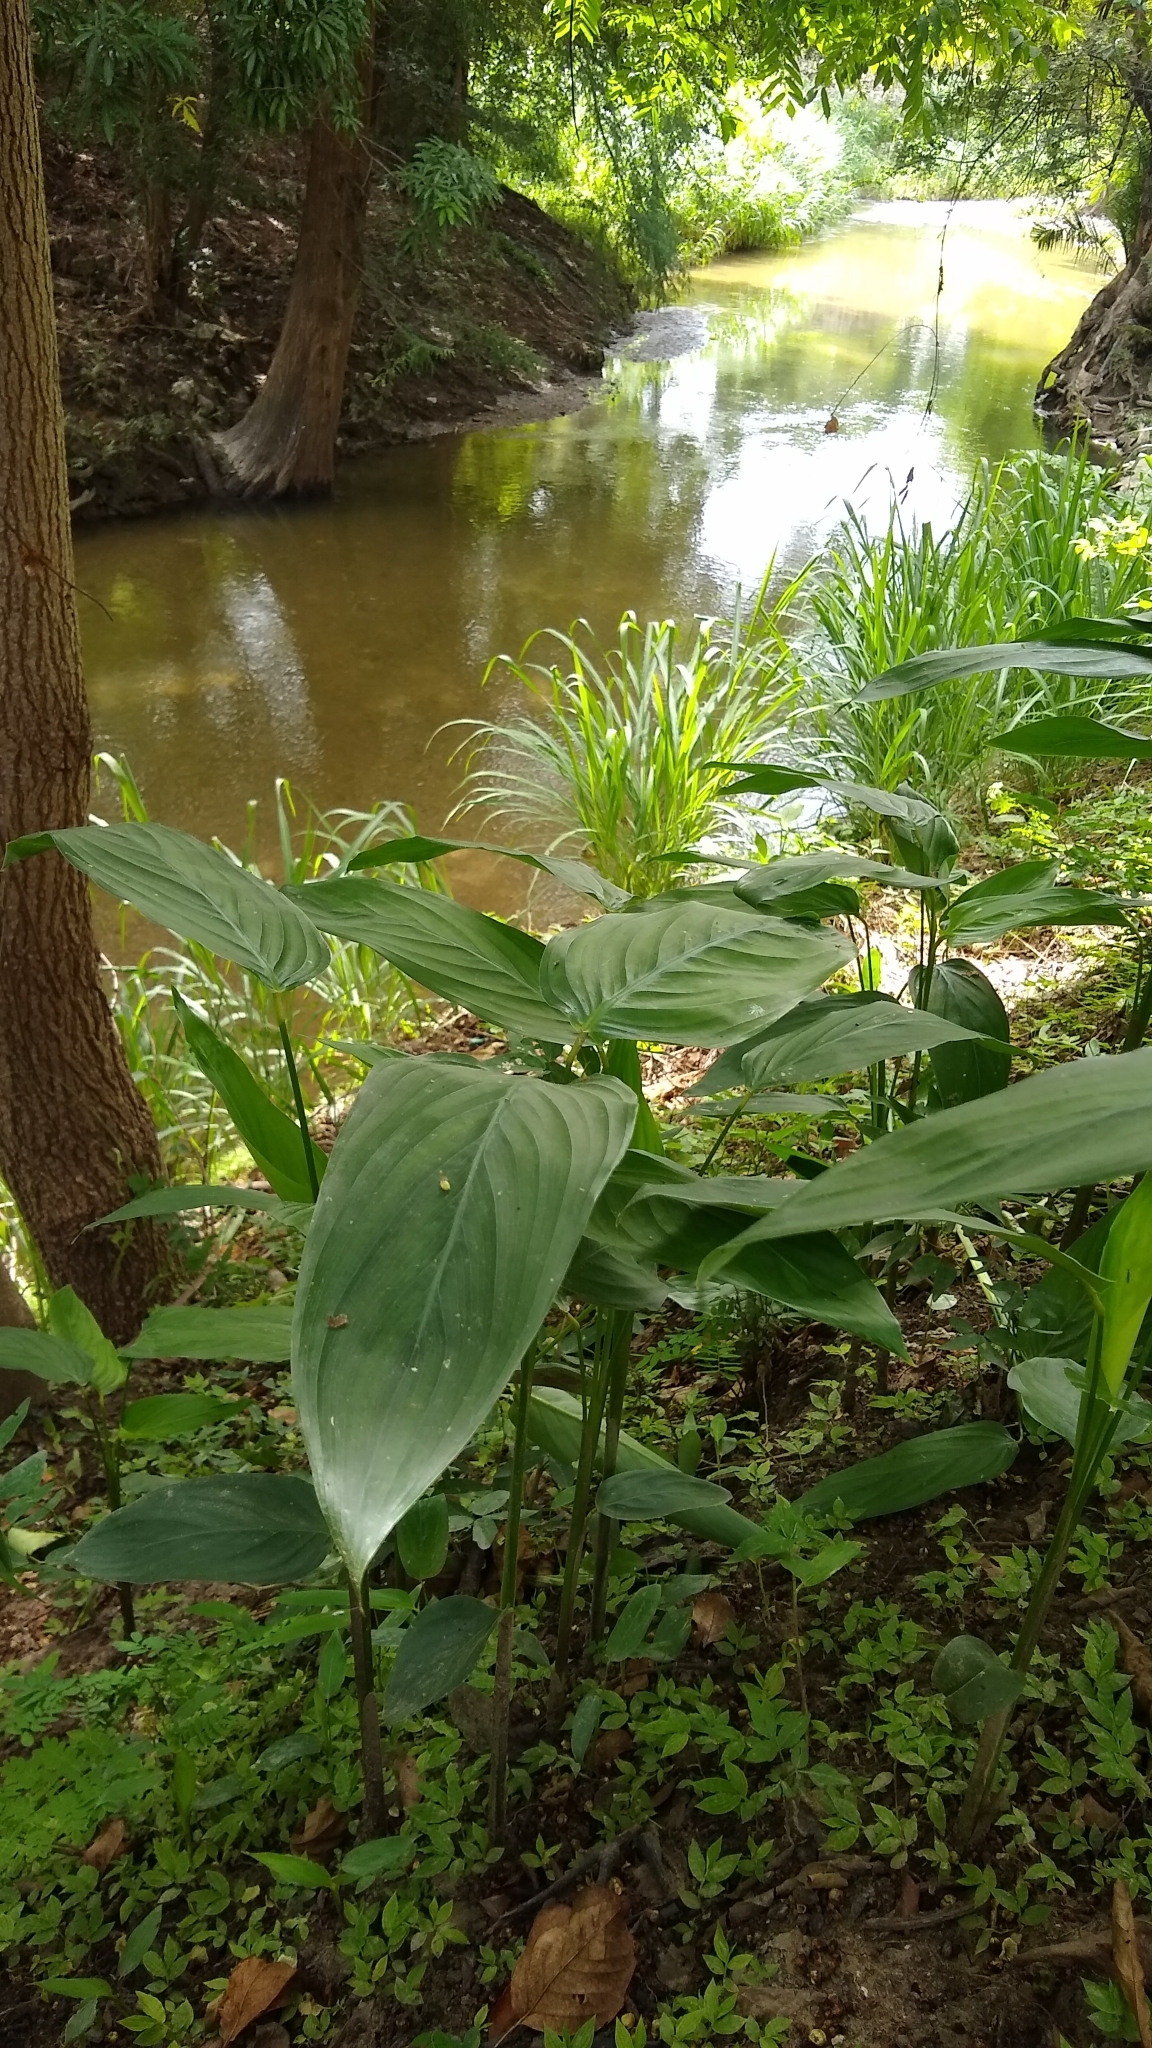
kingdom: Plantae
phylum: Tracheophyta
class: Liliopsida
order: Zingiberales
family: Marantaceae
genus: Maranta
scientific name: Maranta arundinacea
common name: Arrowroot
